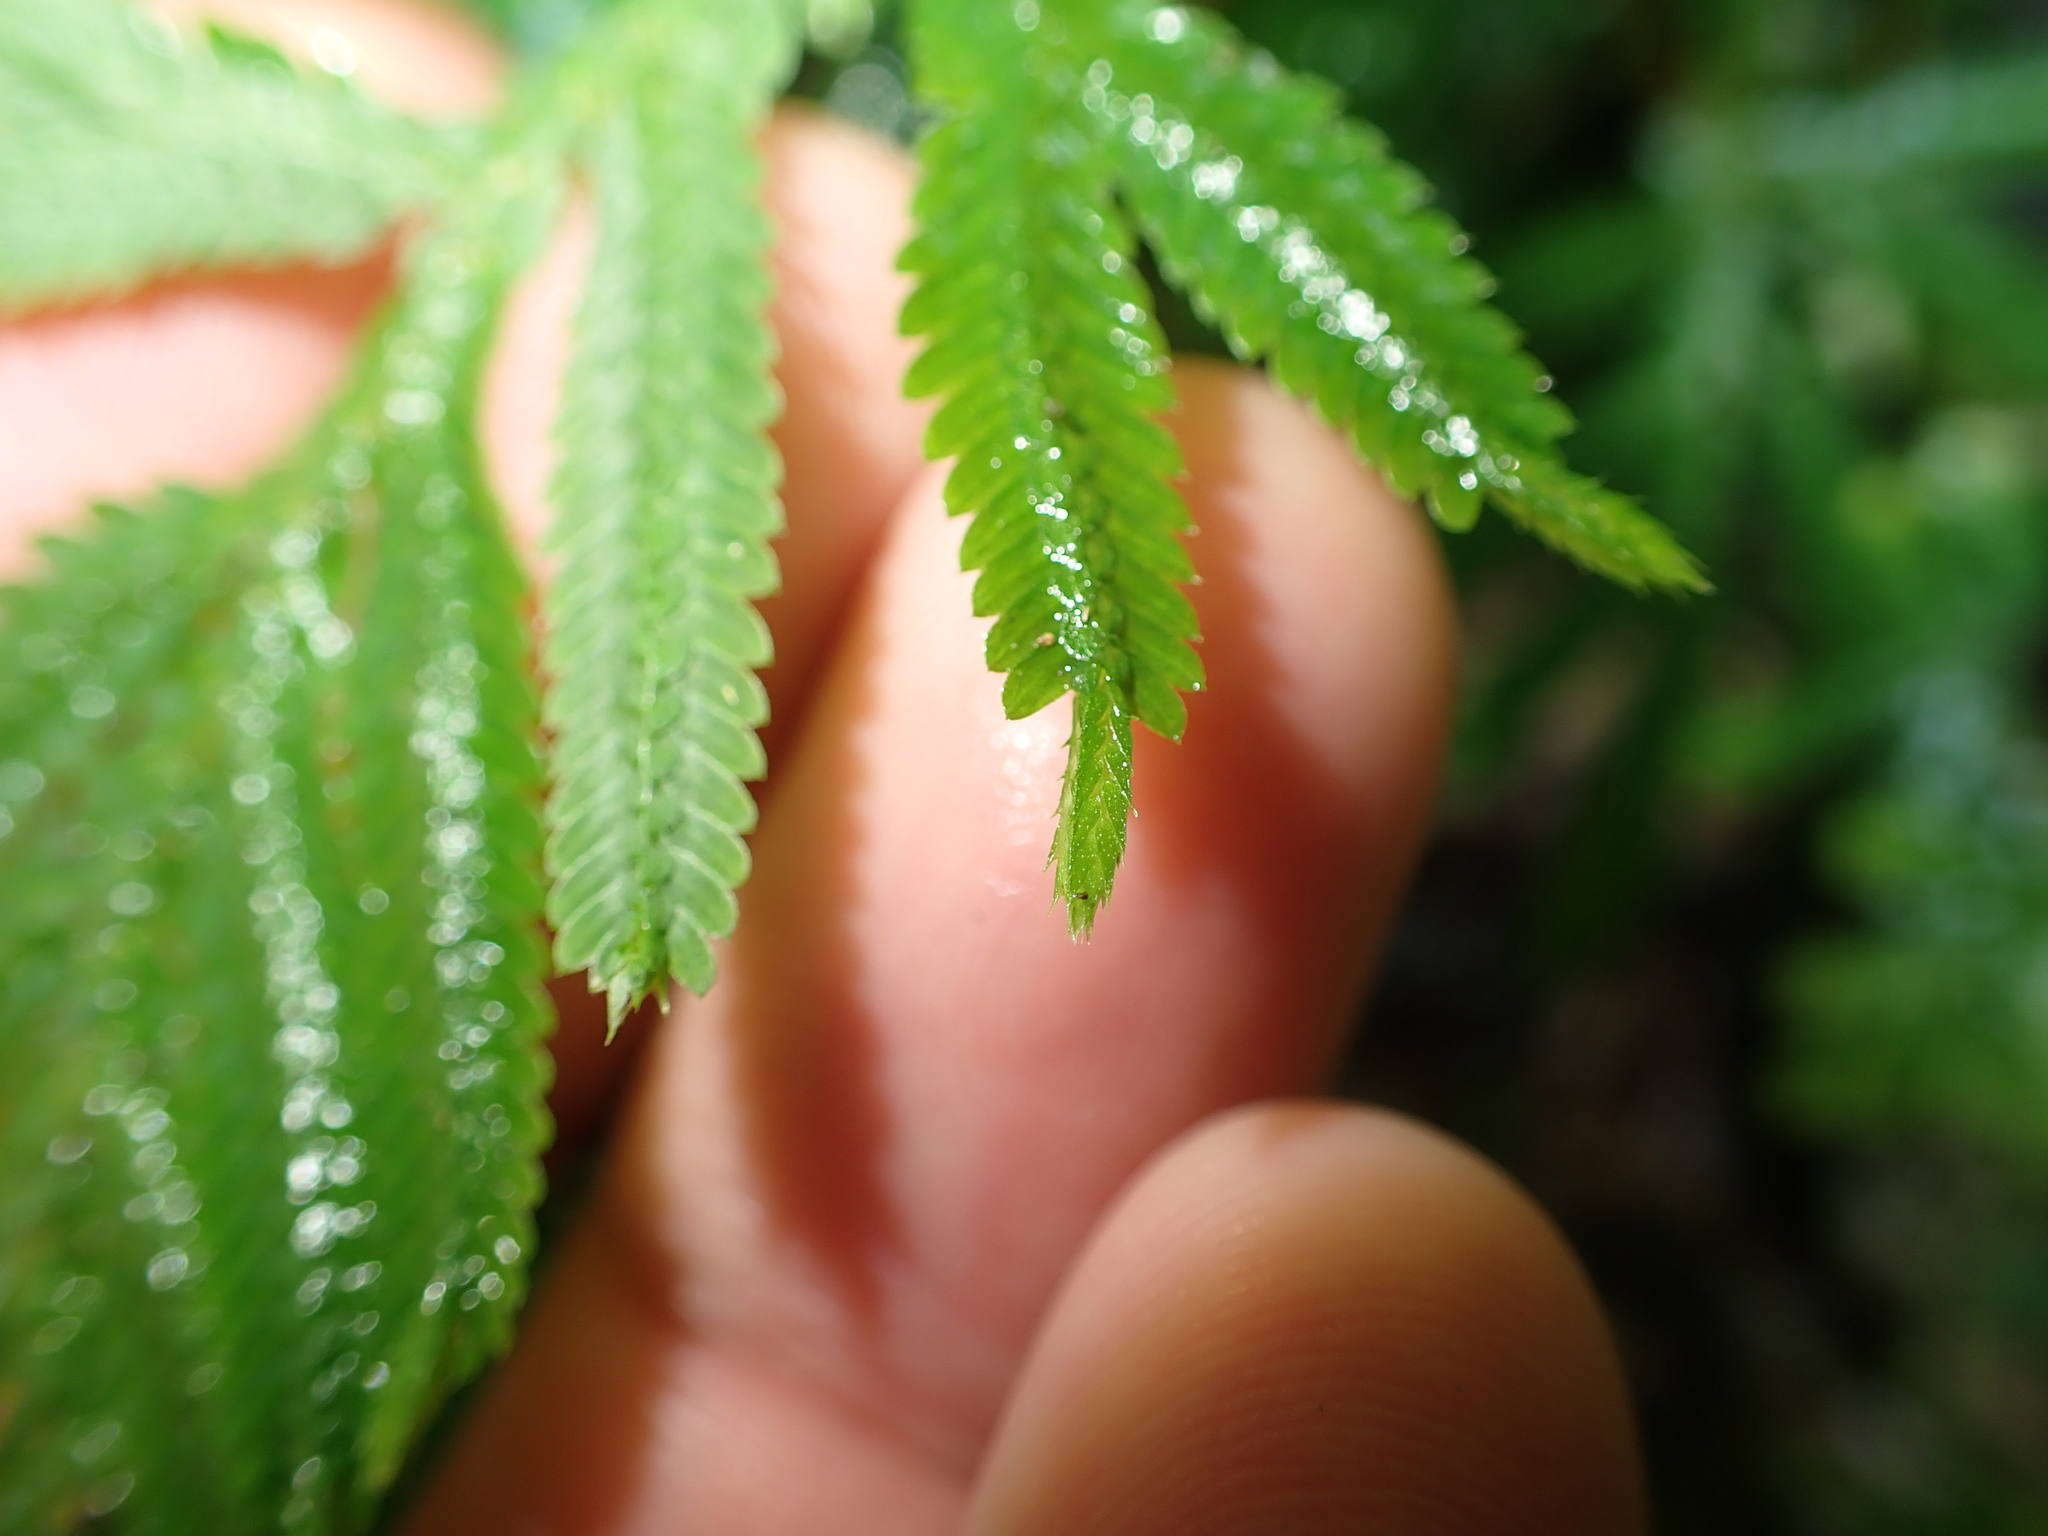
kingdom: Plantae
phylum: Tracheophyta
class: Lycopodiopsida
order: Selaginellales
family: Selaginellaceae
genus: Selaginella
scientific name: Selaginella delicatula
